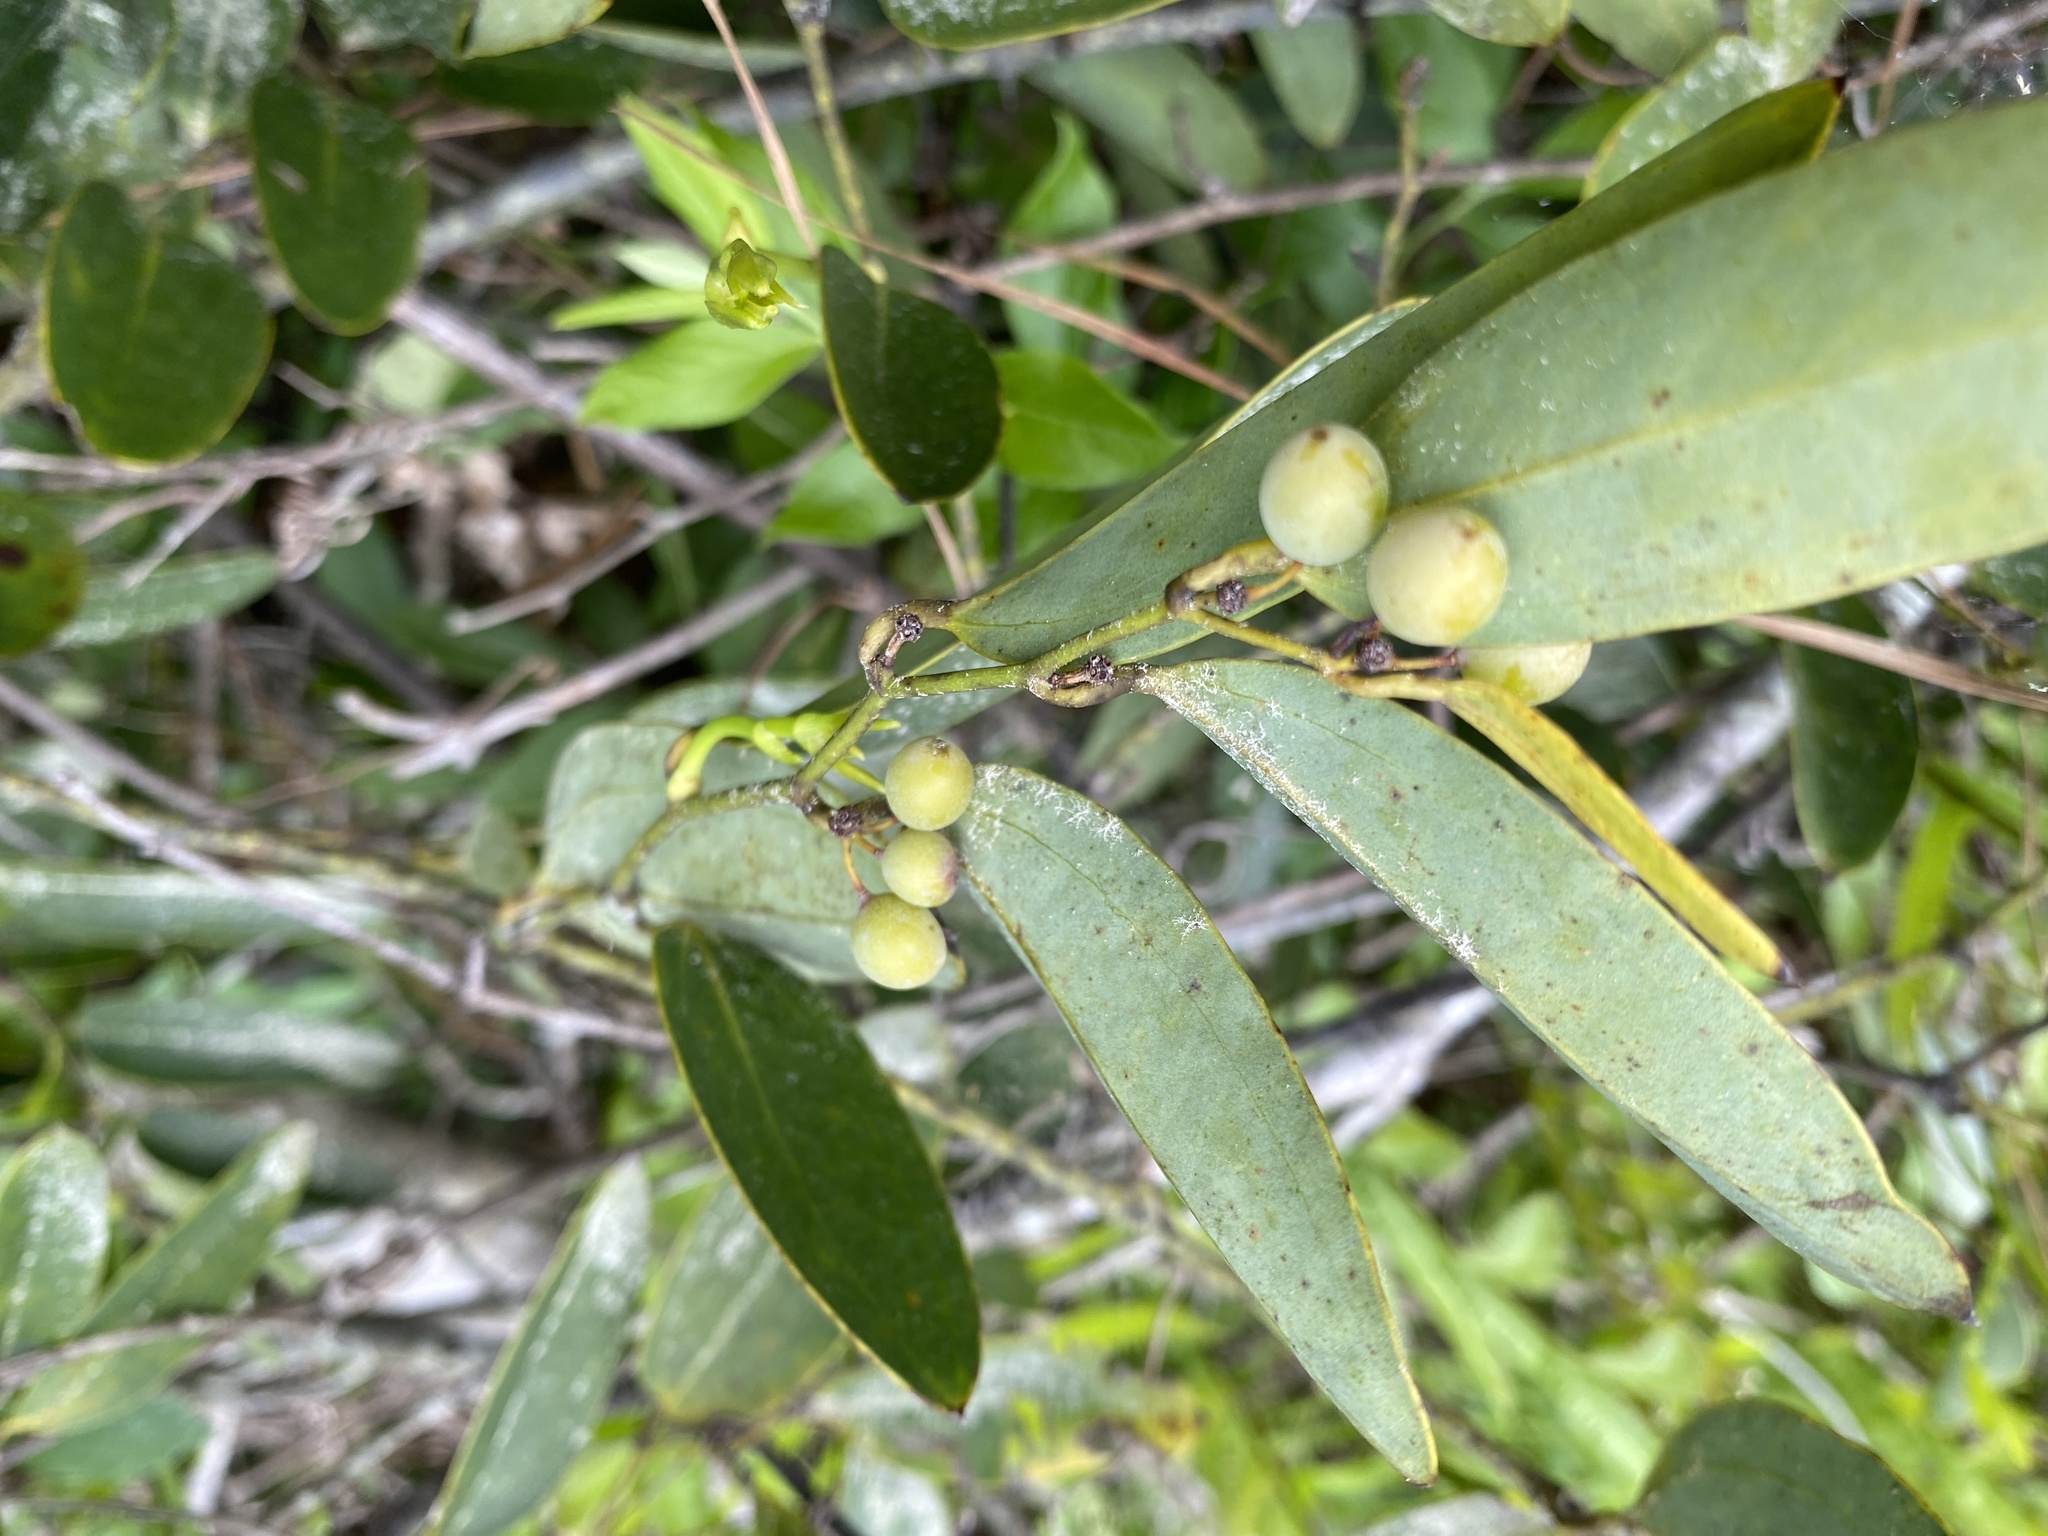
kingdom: Plantae
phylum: Tracheophyta
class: Liliopsida
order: Liliales
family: Smilacaceae
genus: Smilax
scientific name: Smilax laurifolia
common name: Bamboovine
